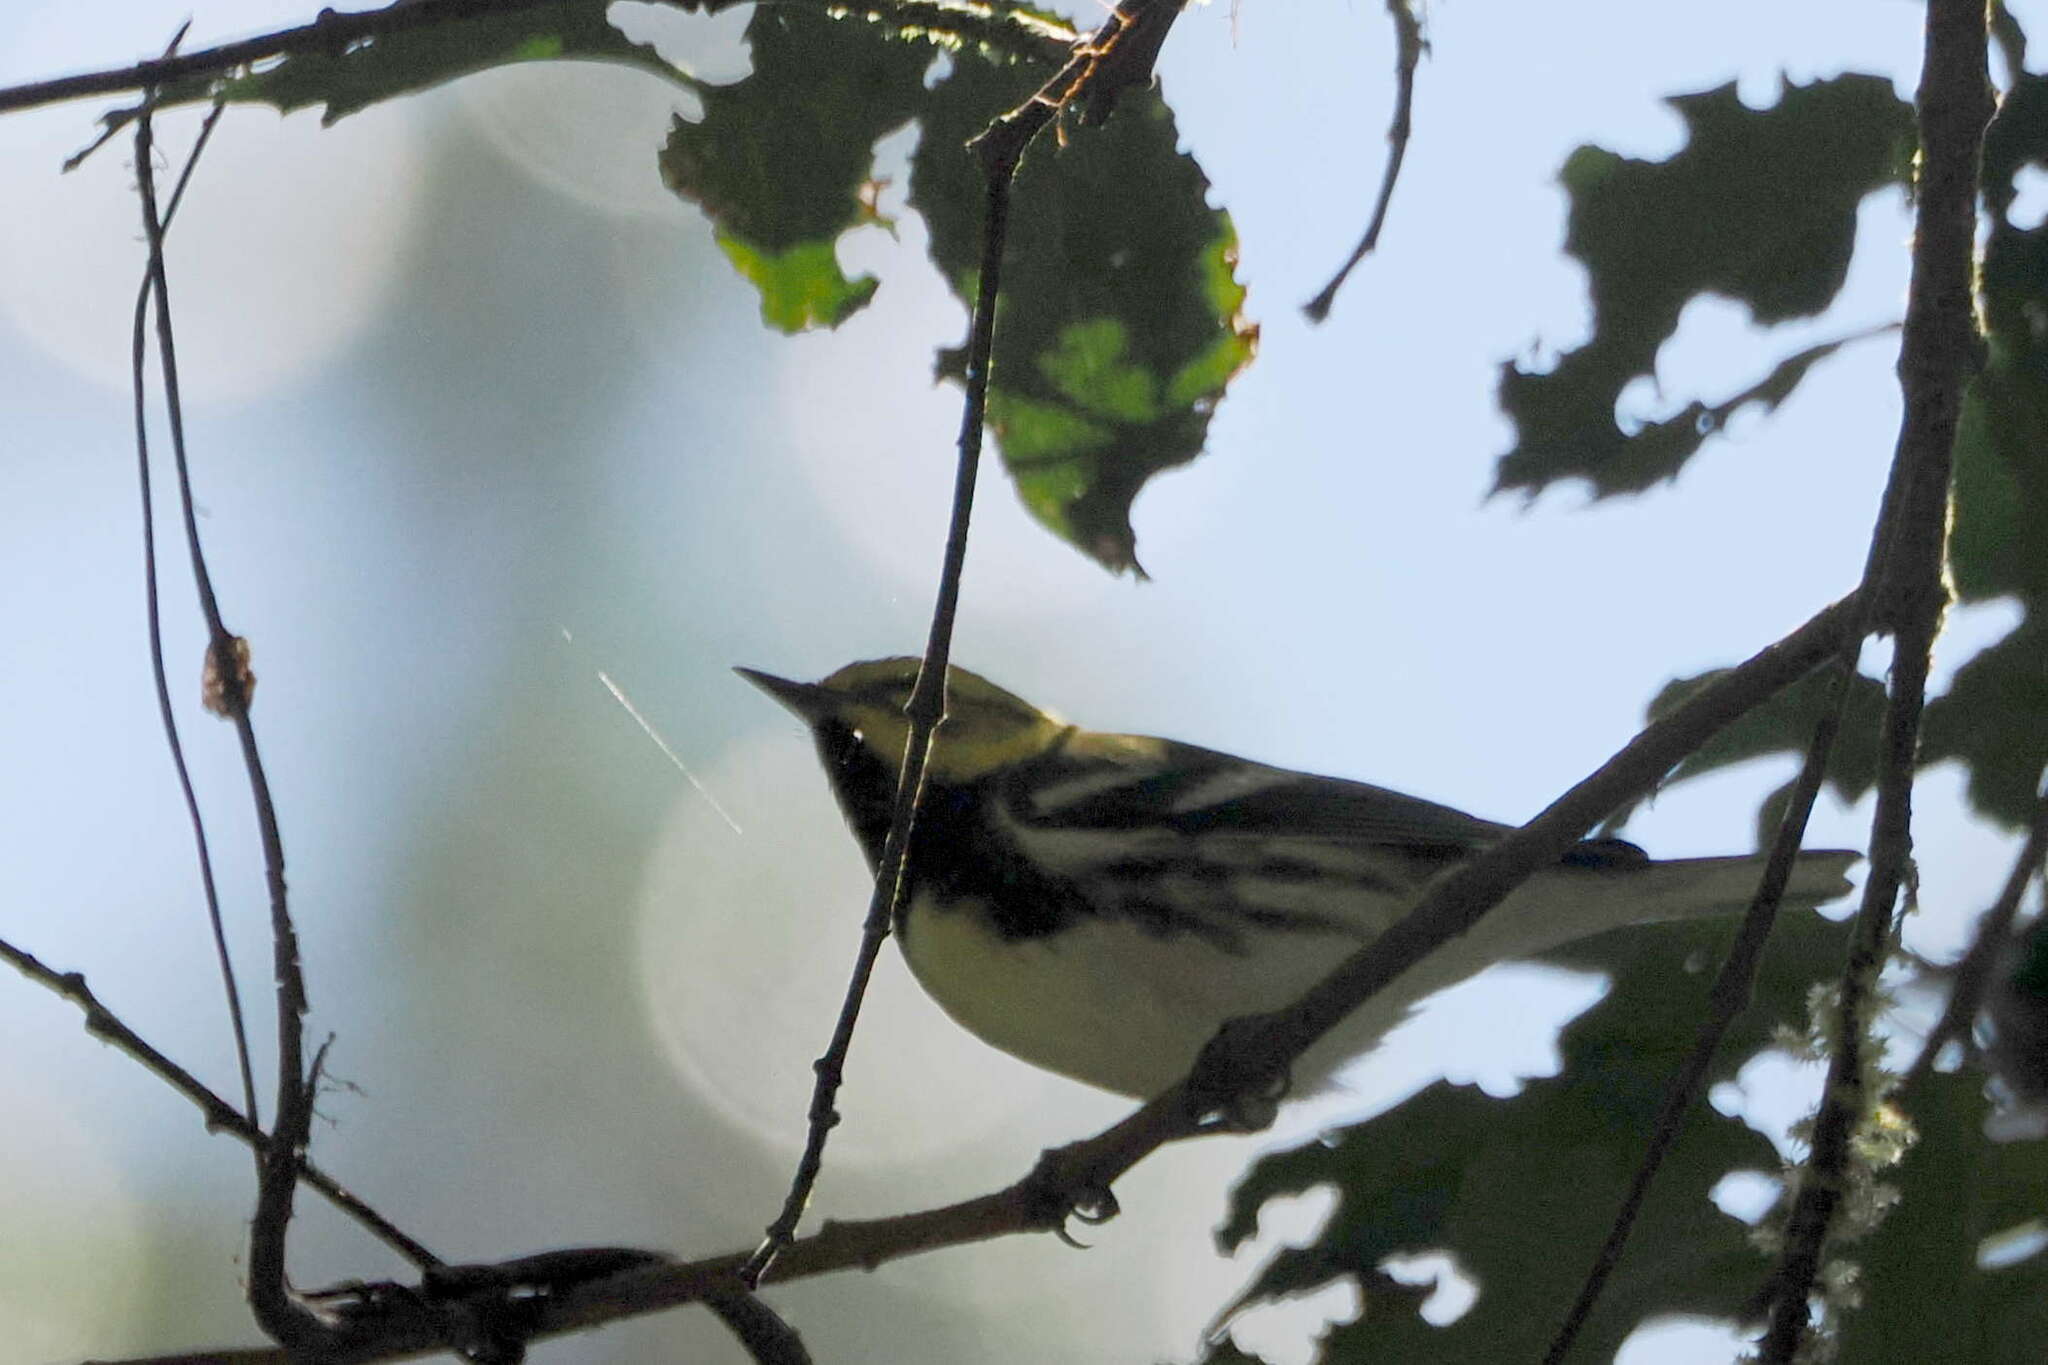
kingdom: Animalia
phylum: Chordata
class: Aves
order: Passeriformes
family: Parulidae
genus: Setophaga
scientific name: Setophaga virens
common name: Black-throated green warbler
